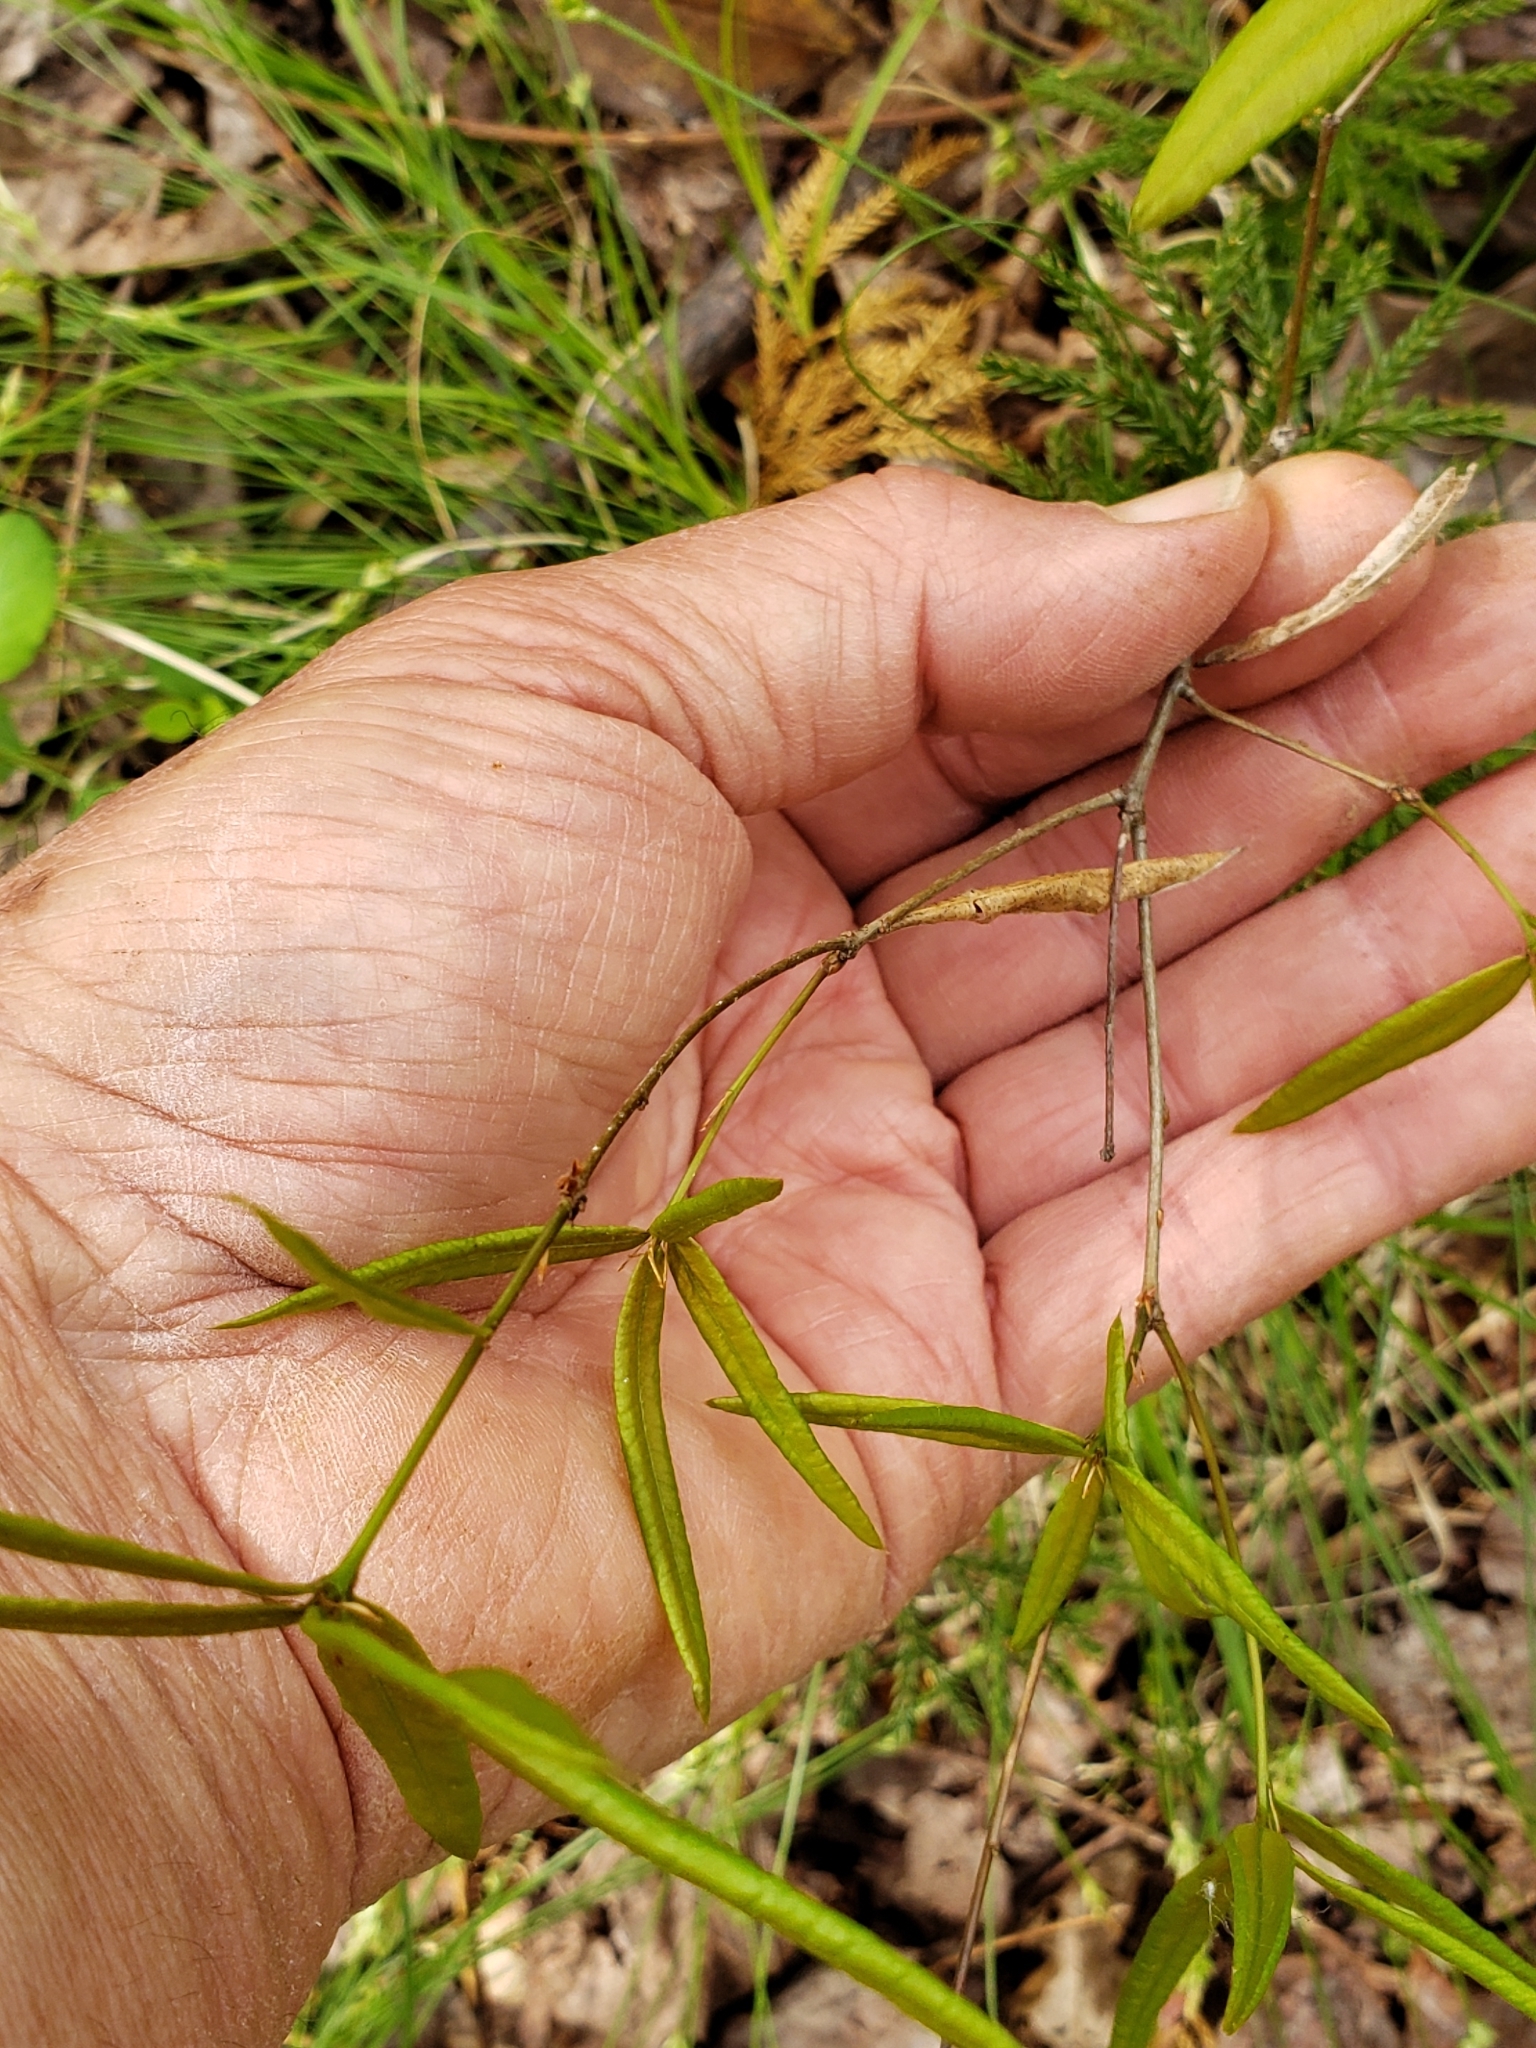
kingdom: Plantae
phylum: Tracheophyta
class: Magnoliopsida
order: Fagales
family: Fagaceae
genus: Quercus
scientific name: Quercus phellos
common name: Willow oak
